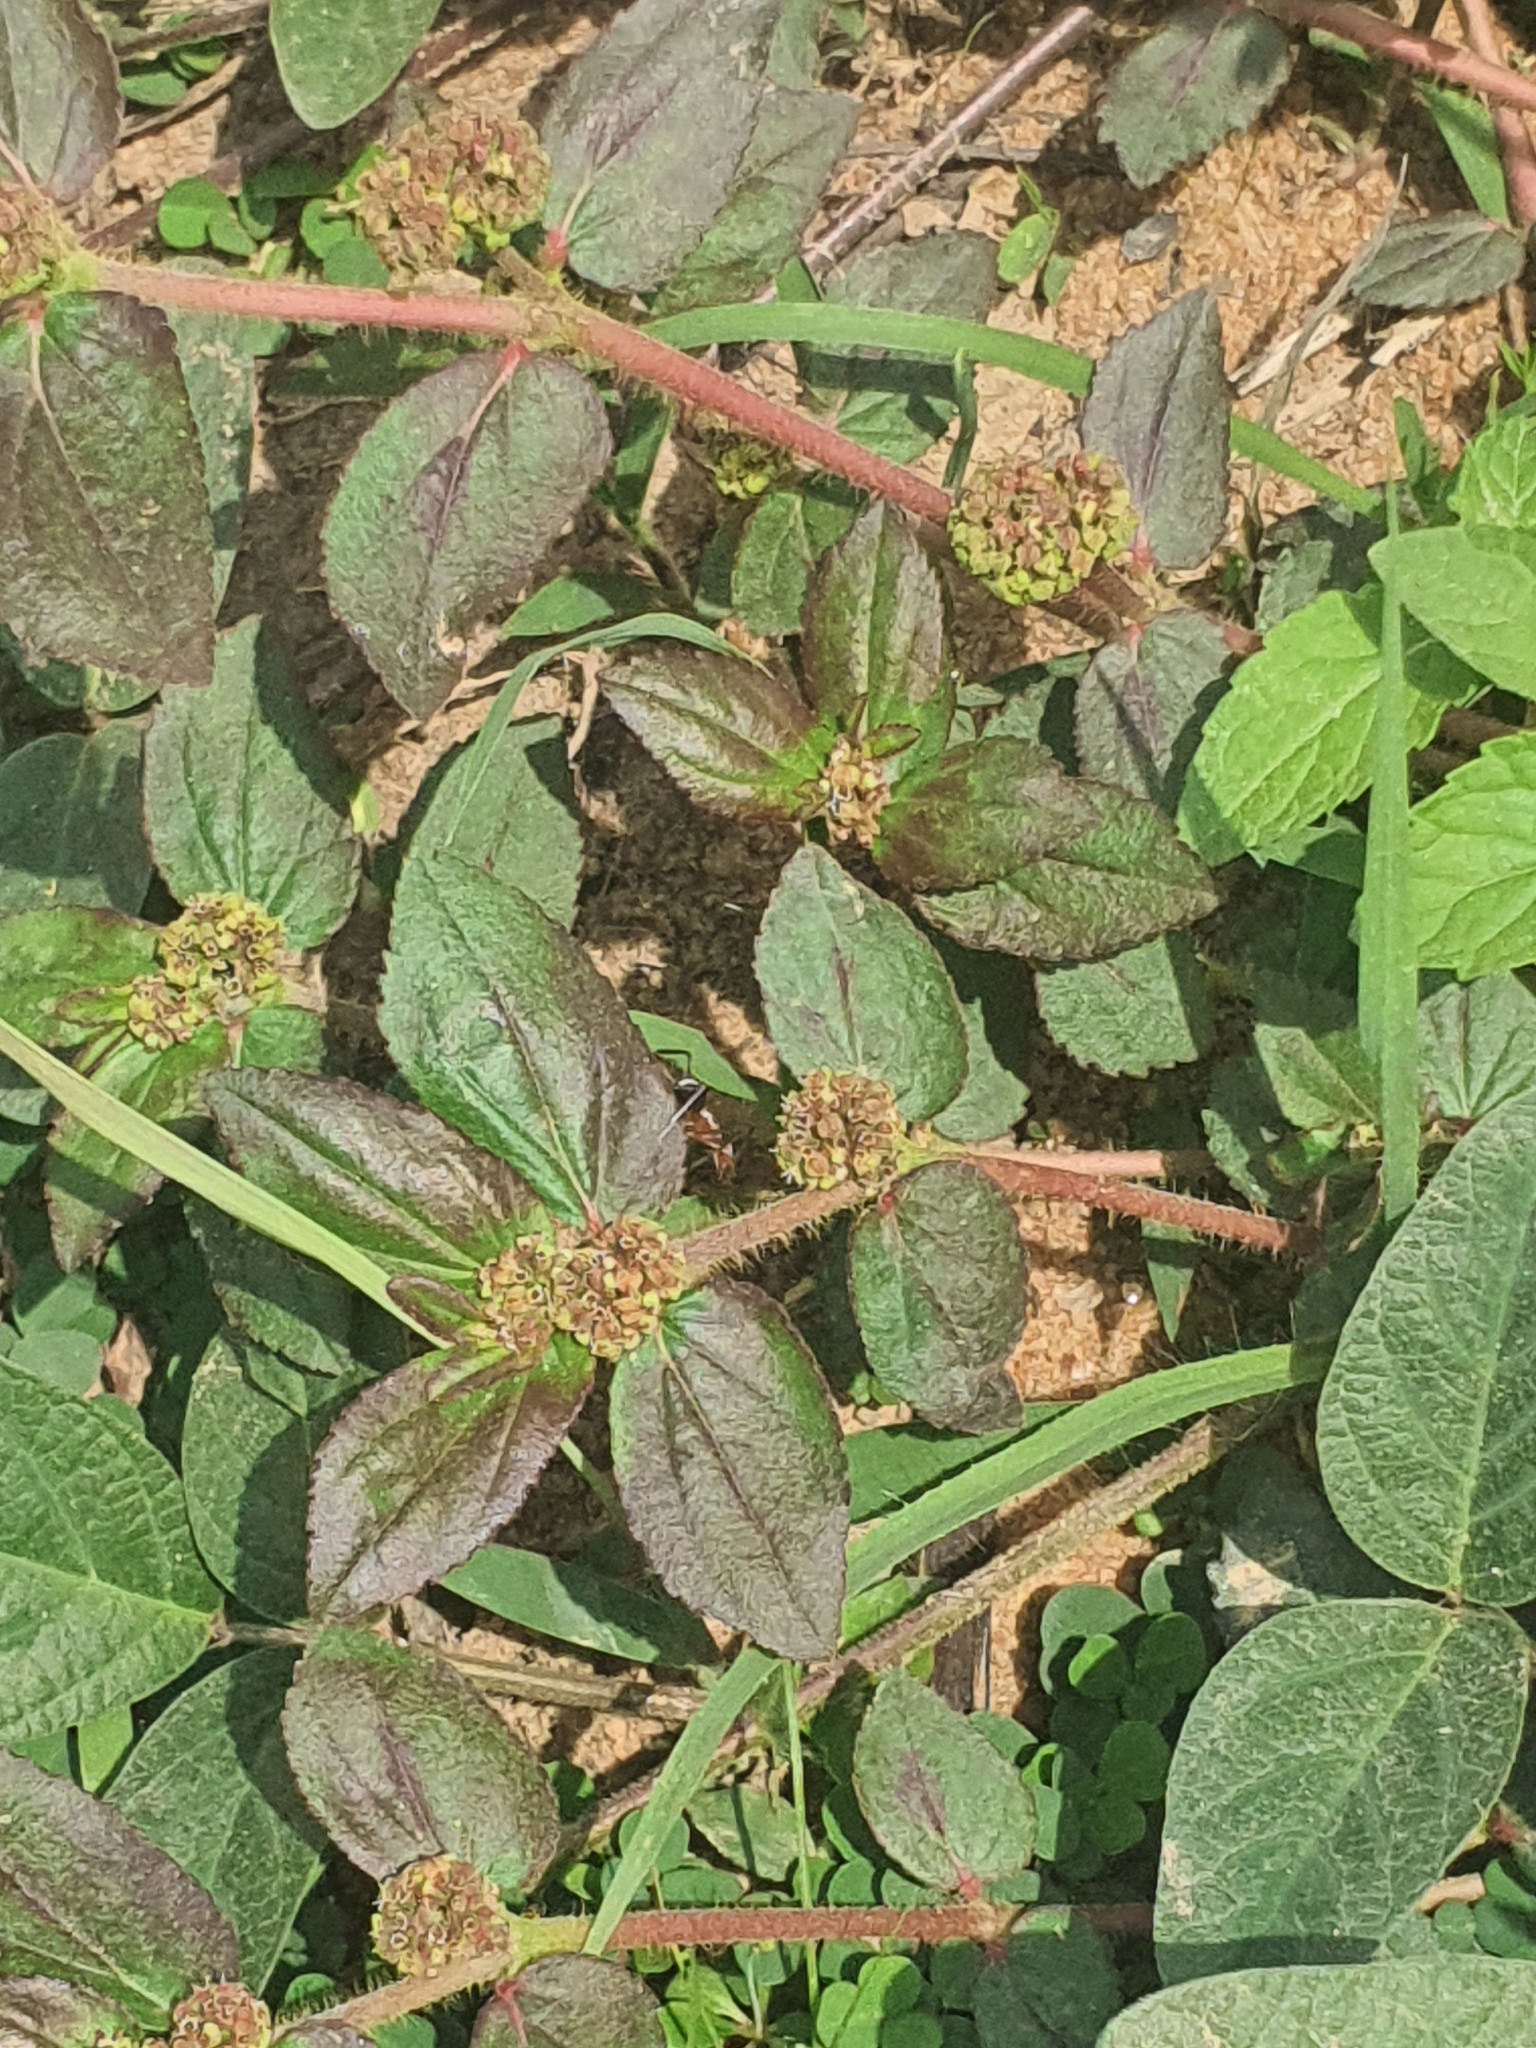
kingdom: Plantae
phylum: Tracheophyta
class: Magnoliopsida
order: Malpighiales
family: Euphorbiaceae
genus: Euphorbia
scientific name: Euphorbia hirta
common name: Pillpod sandmat
